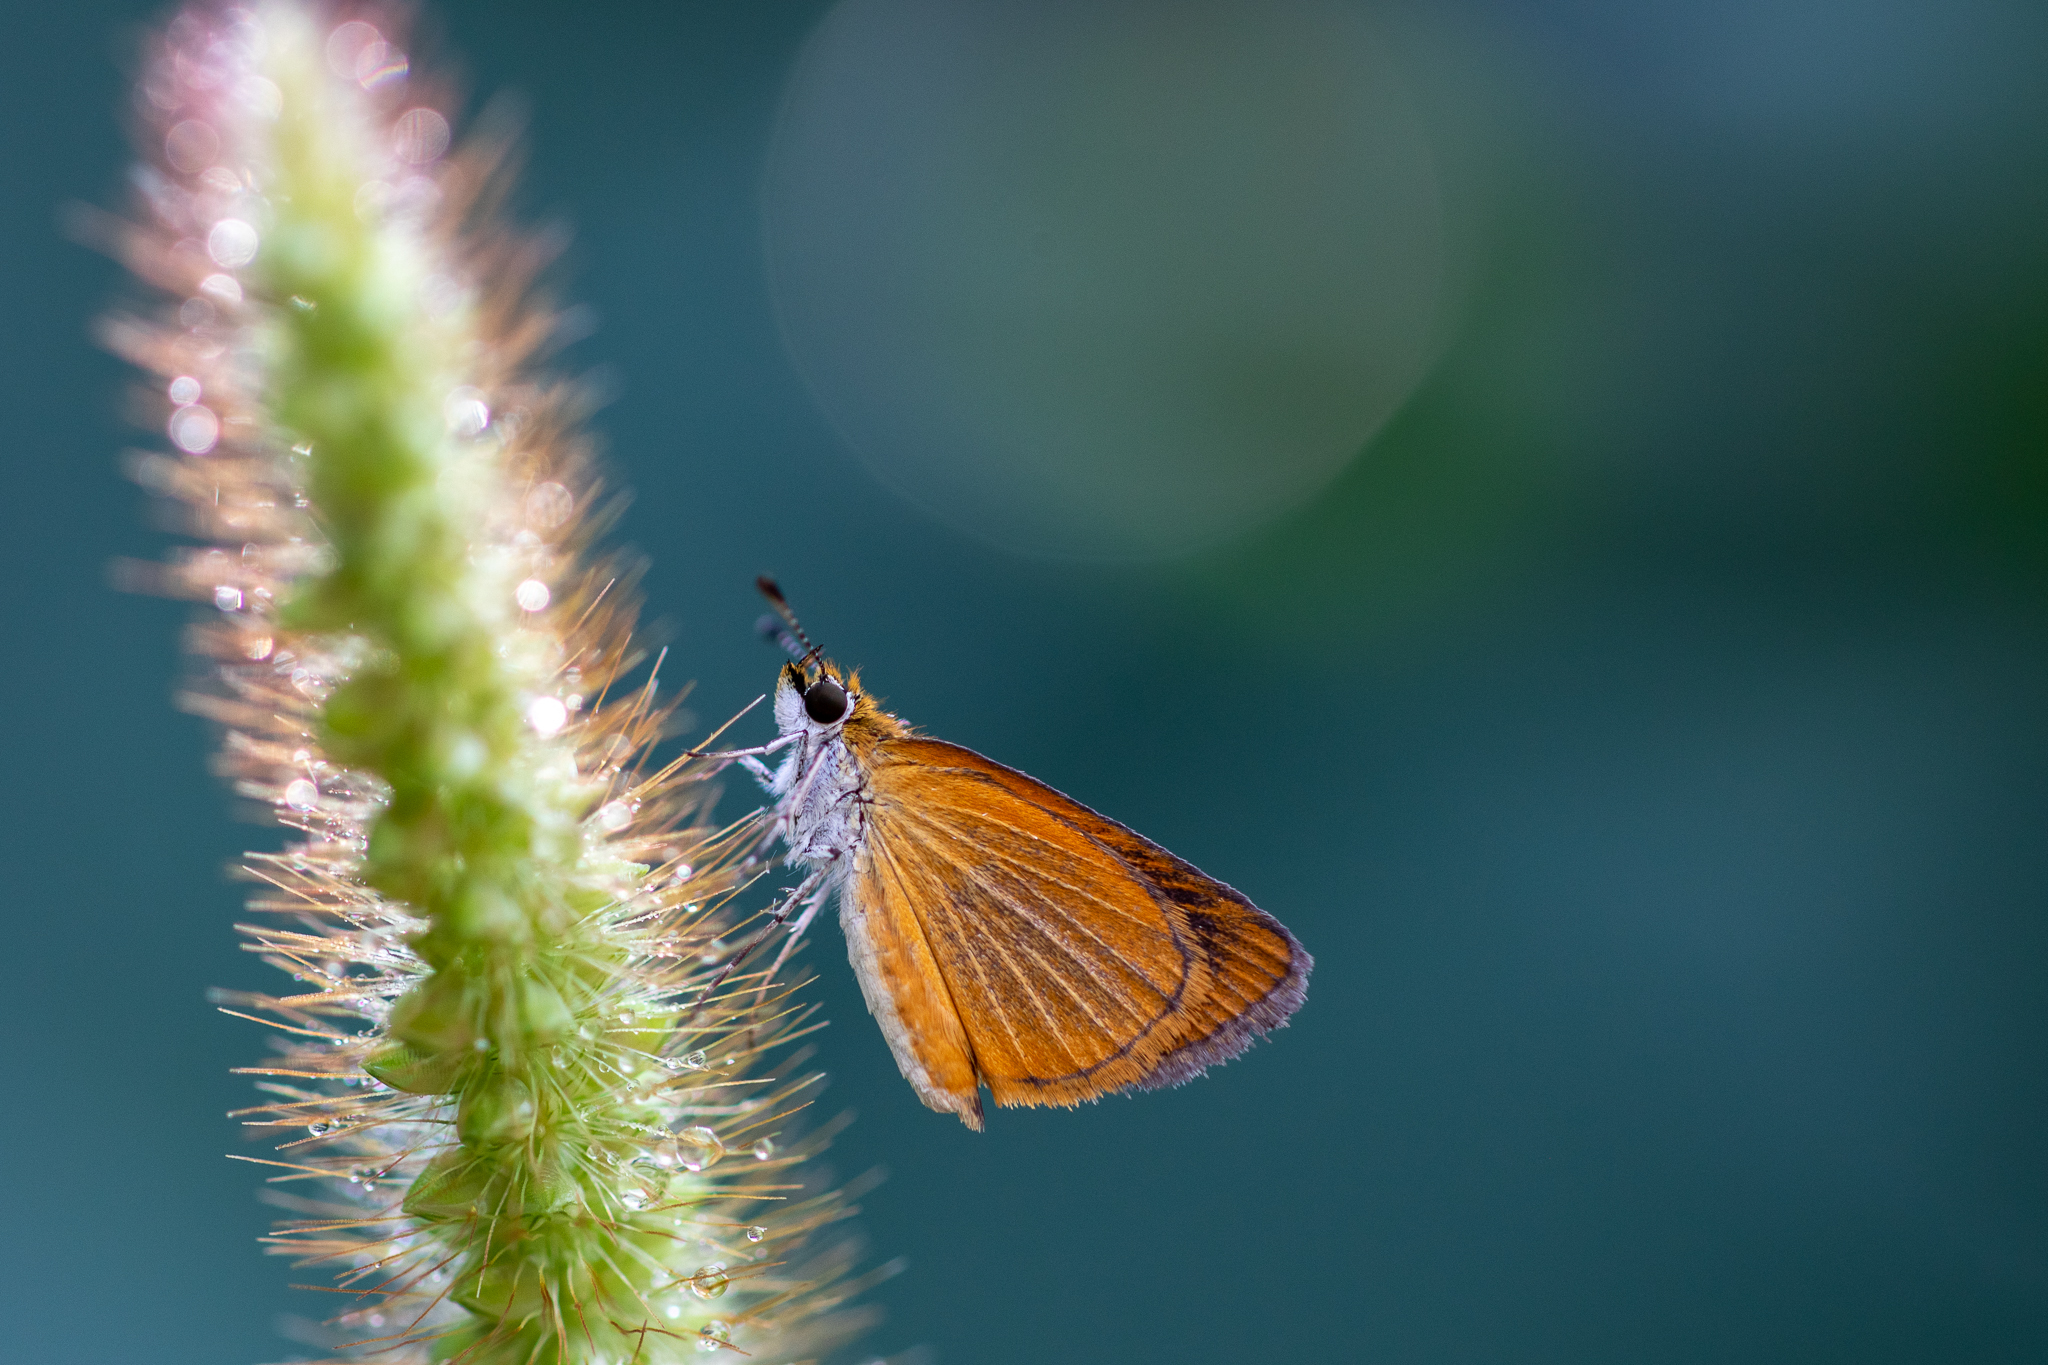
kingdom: Animalia
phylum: Arthropoda
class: Insecta
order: Lepidoptera
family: Hesperiidae
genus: Ancyloxypha
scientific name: Ancyloxypha numitor
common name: Least skipper
